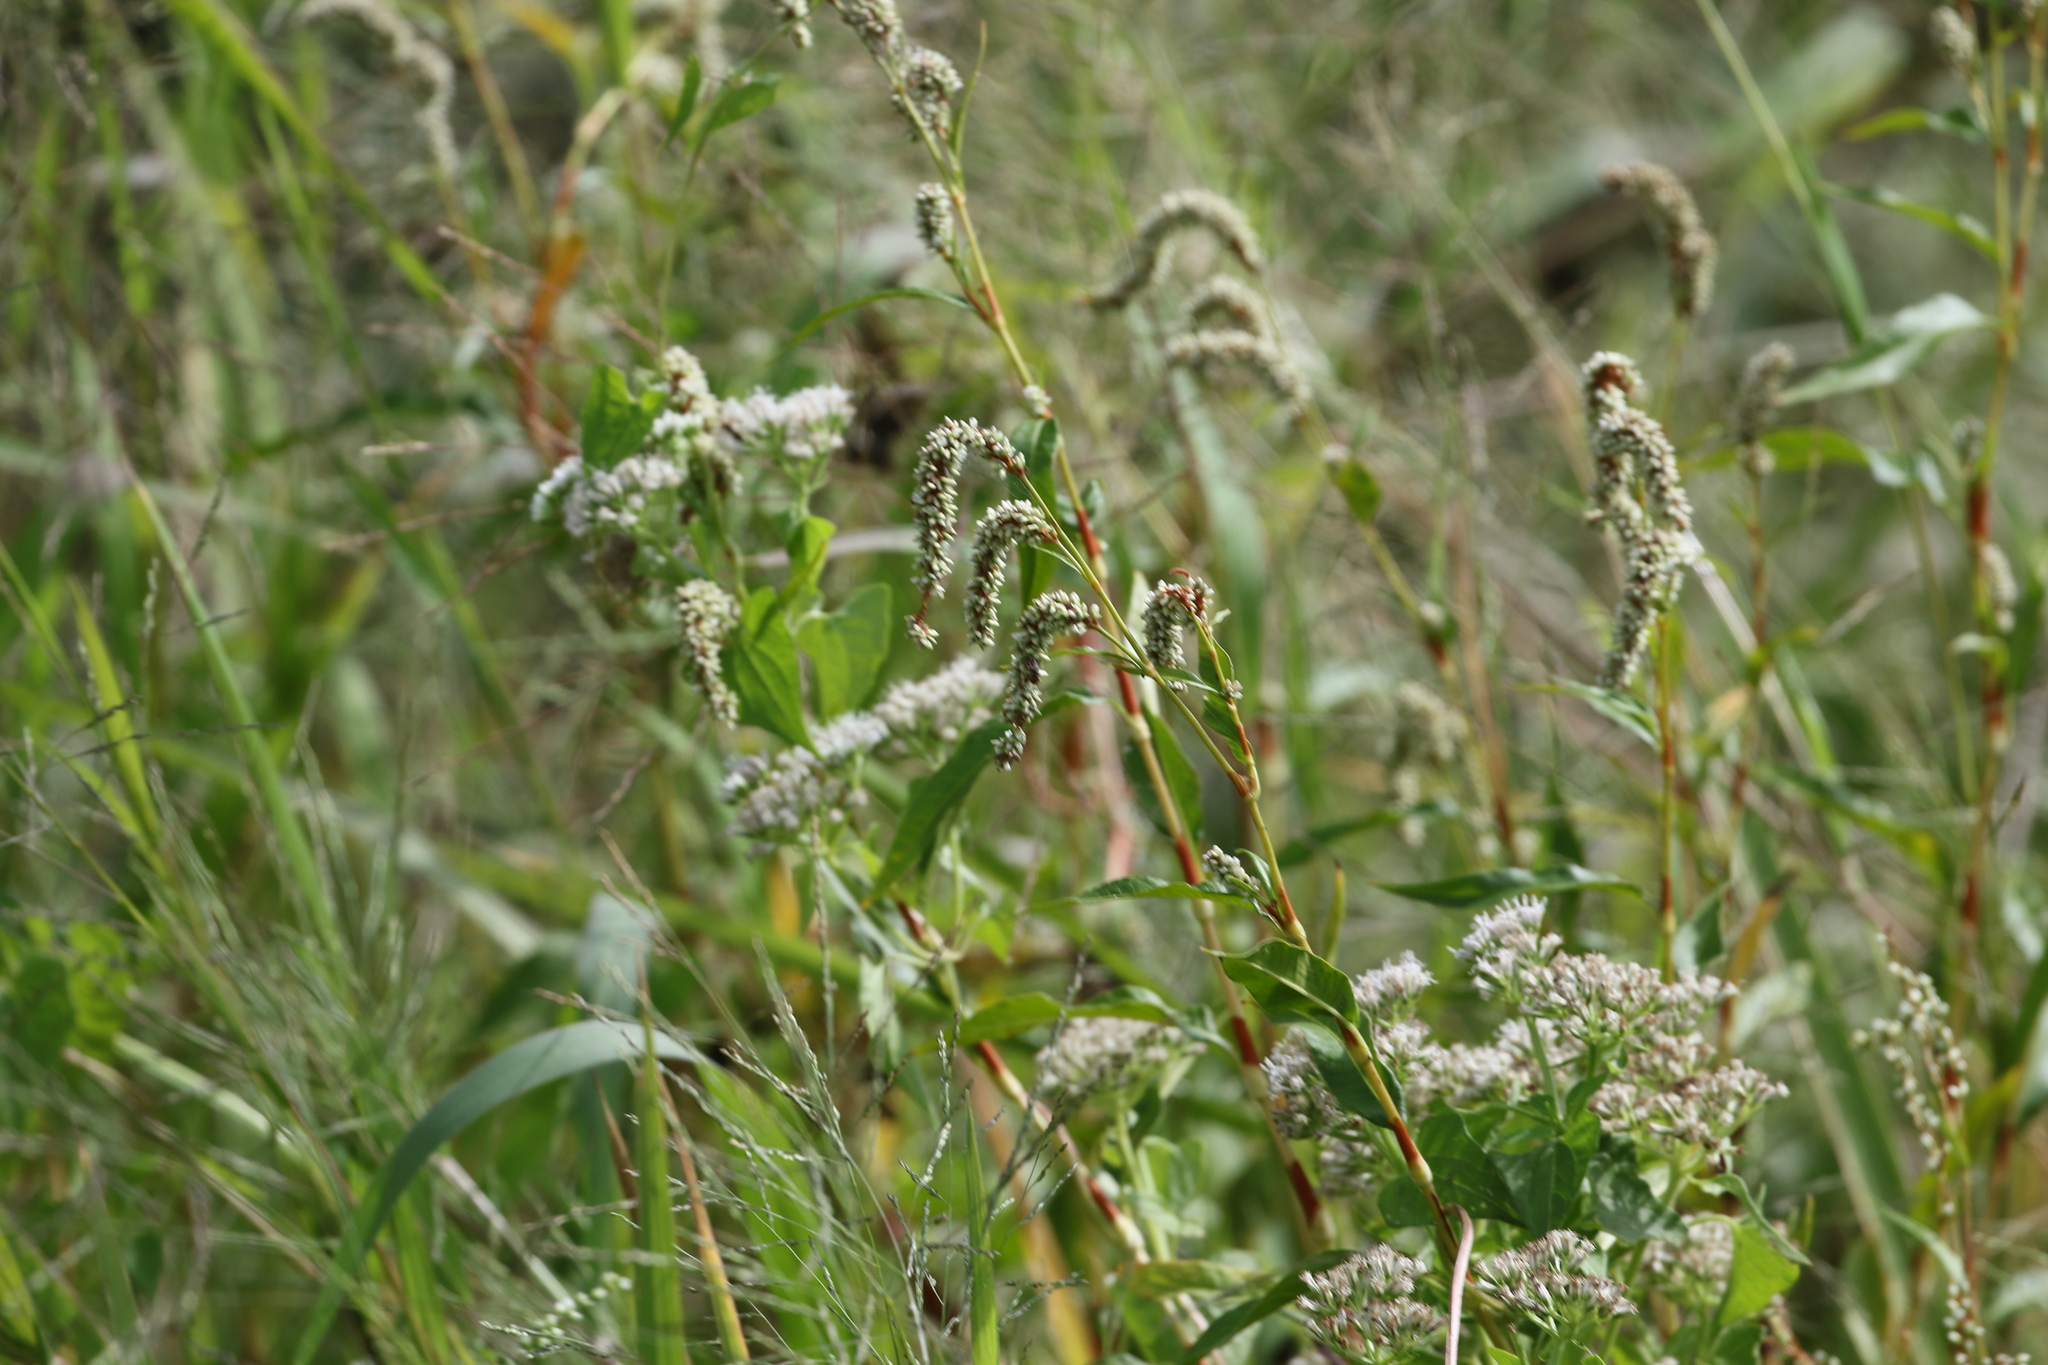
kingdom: Plantae
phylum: Tracheophyta
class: Magnoliopsida
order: Asterales
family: Asteraceae
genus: Mikania
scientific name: Mikania scandens
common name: Climbing hempvine
